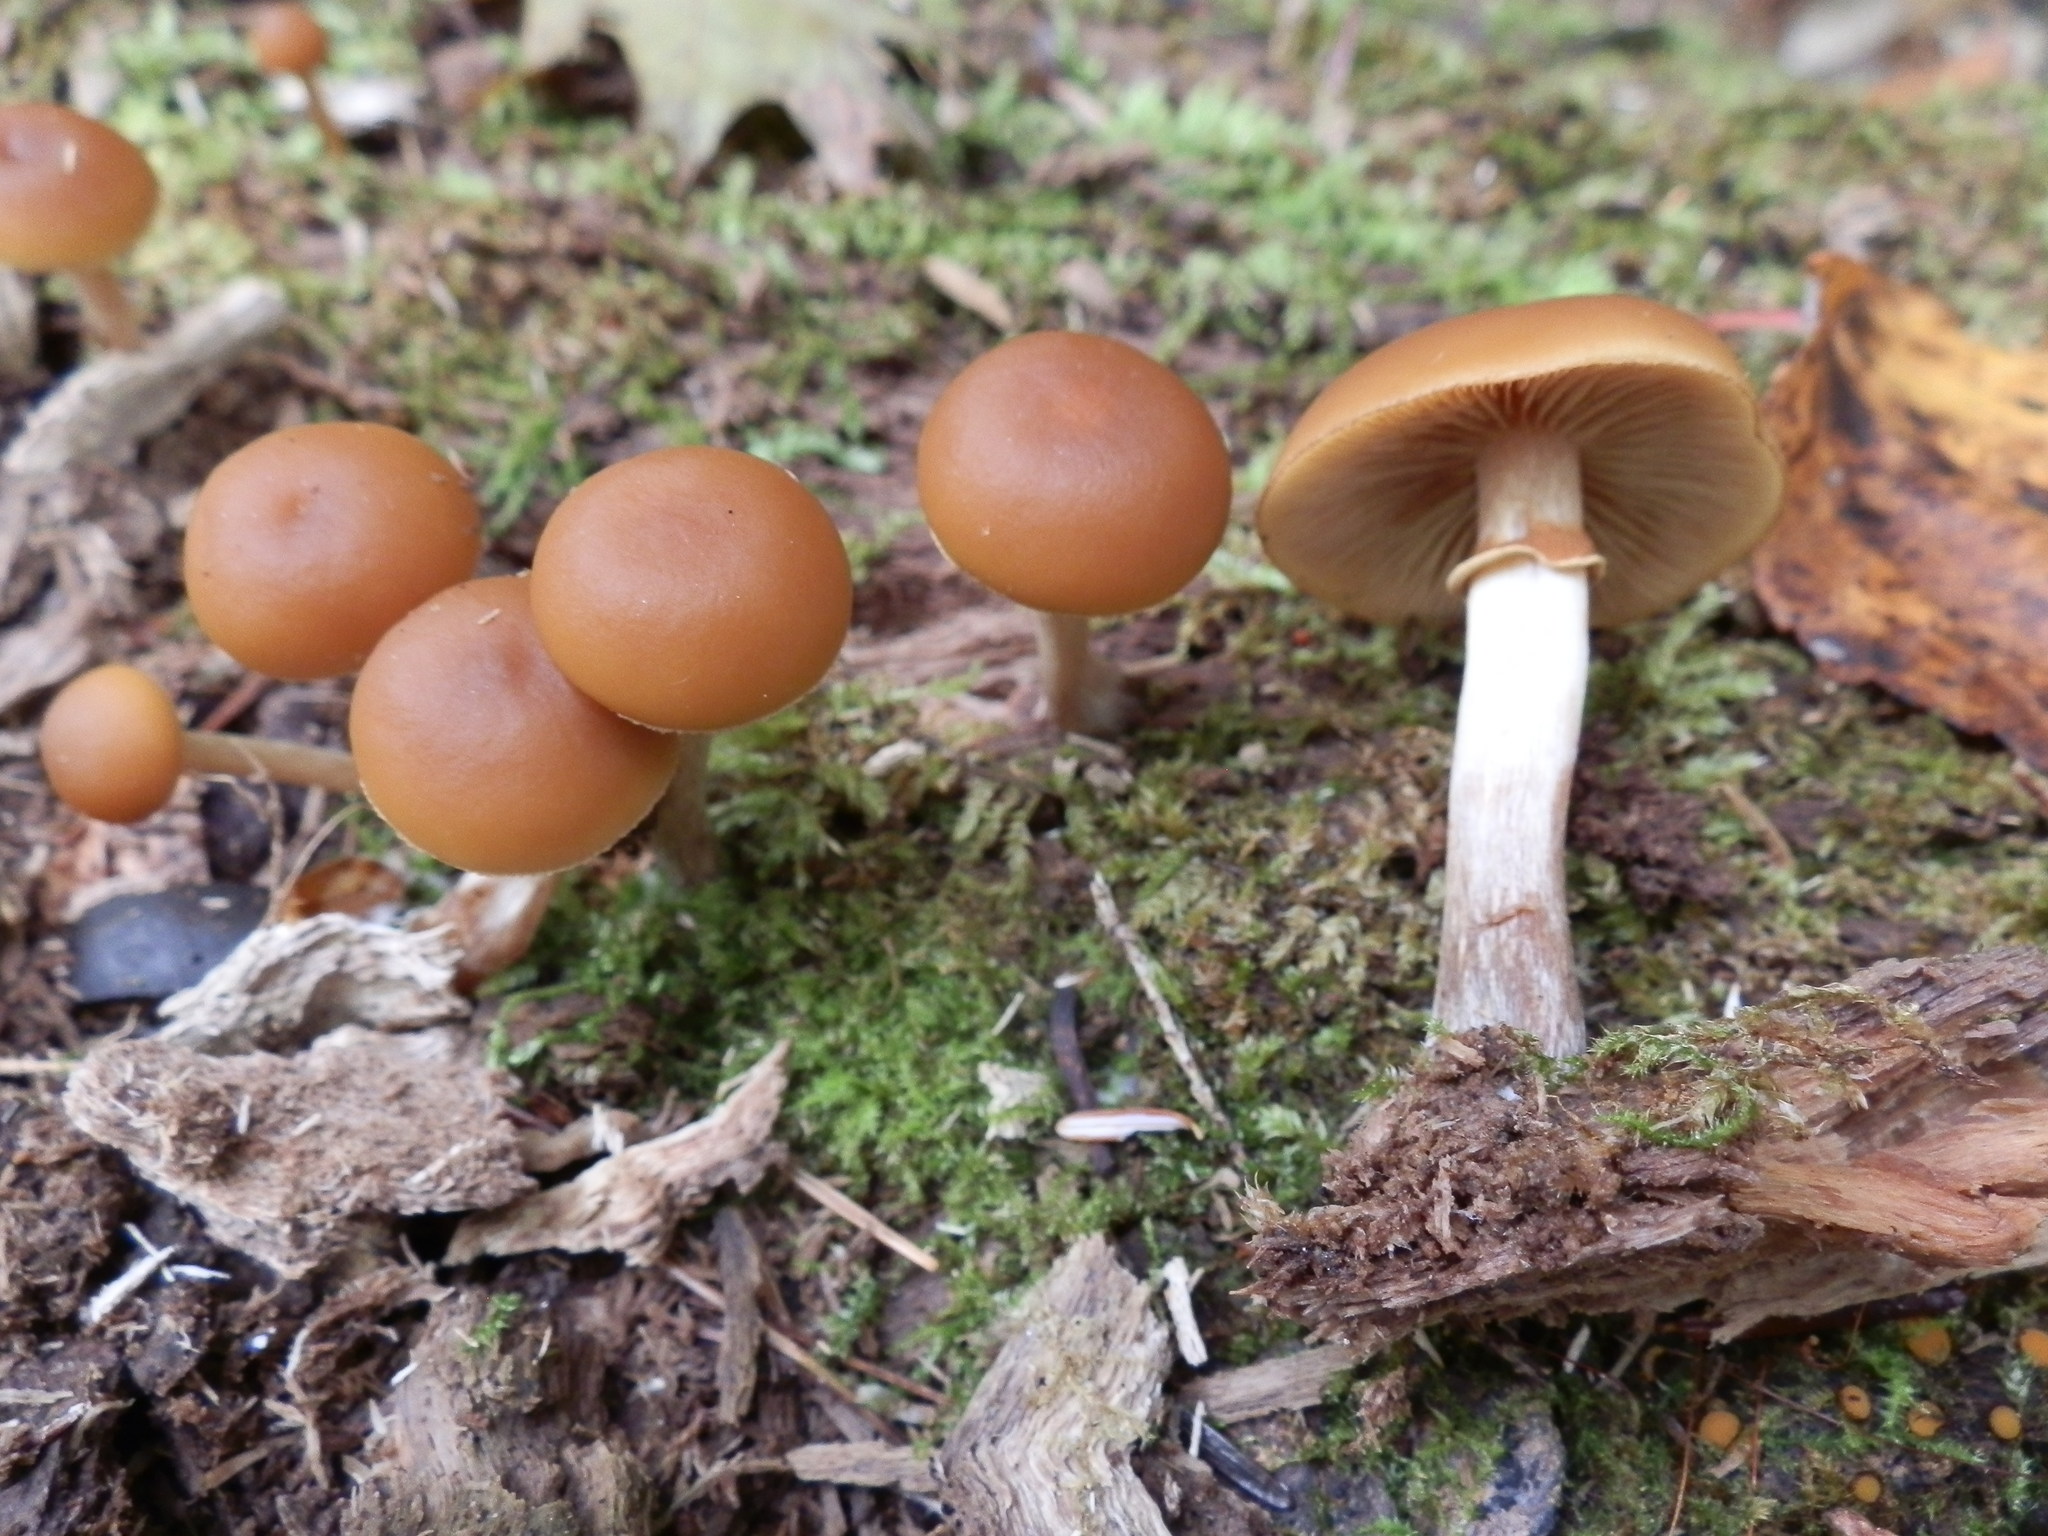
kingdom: Fungi
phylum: Basidiomycota
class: Agaricomycetes
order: Agaricales
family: Hymenogastraceae
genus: Galerina
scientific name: Galerina marginata
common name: Funeral bell
